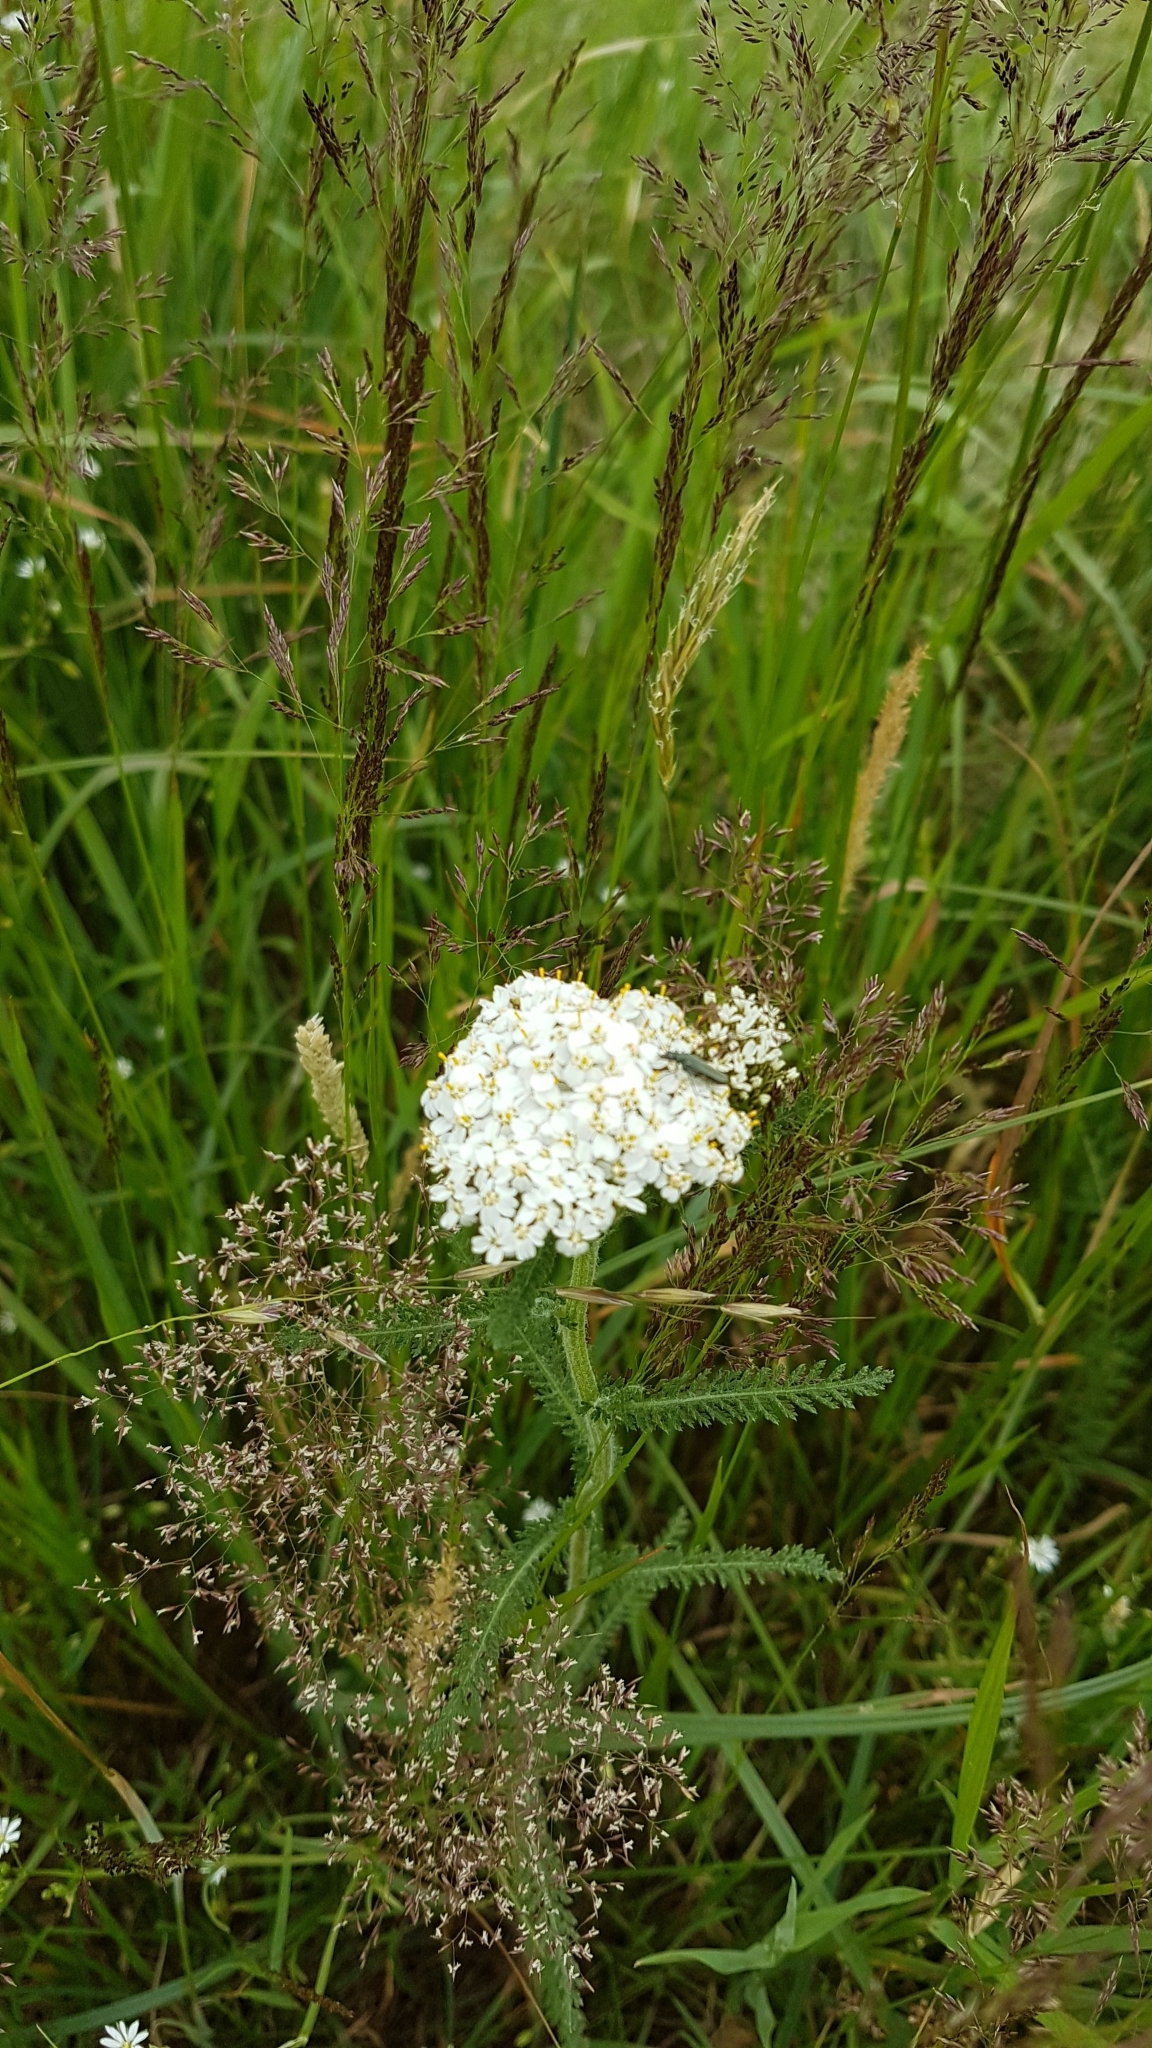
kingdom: Plantae
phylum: Tracheophyta
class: Magnoliopsida
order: Asterales
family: Asteraceae
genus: Achillea
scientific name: Achillea millefolium
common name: Yarrow
